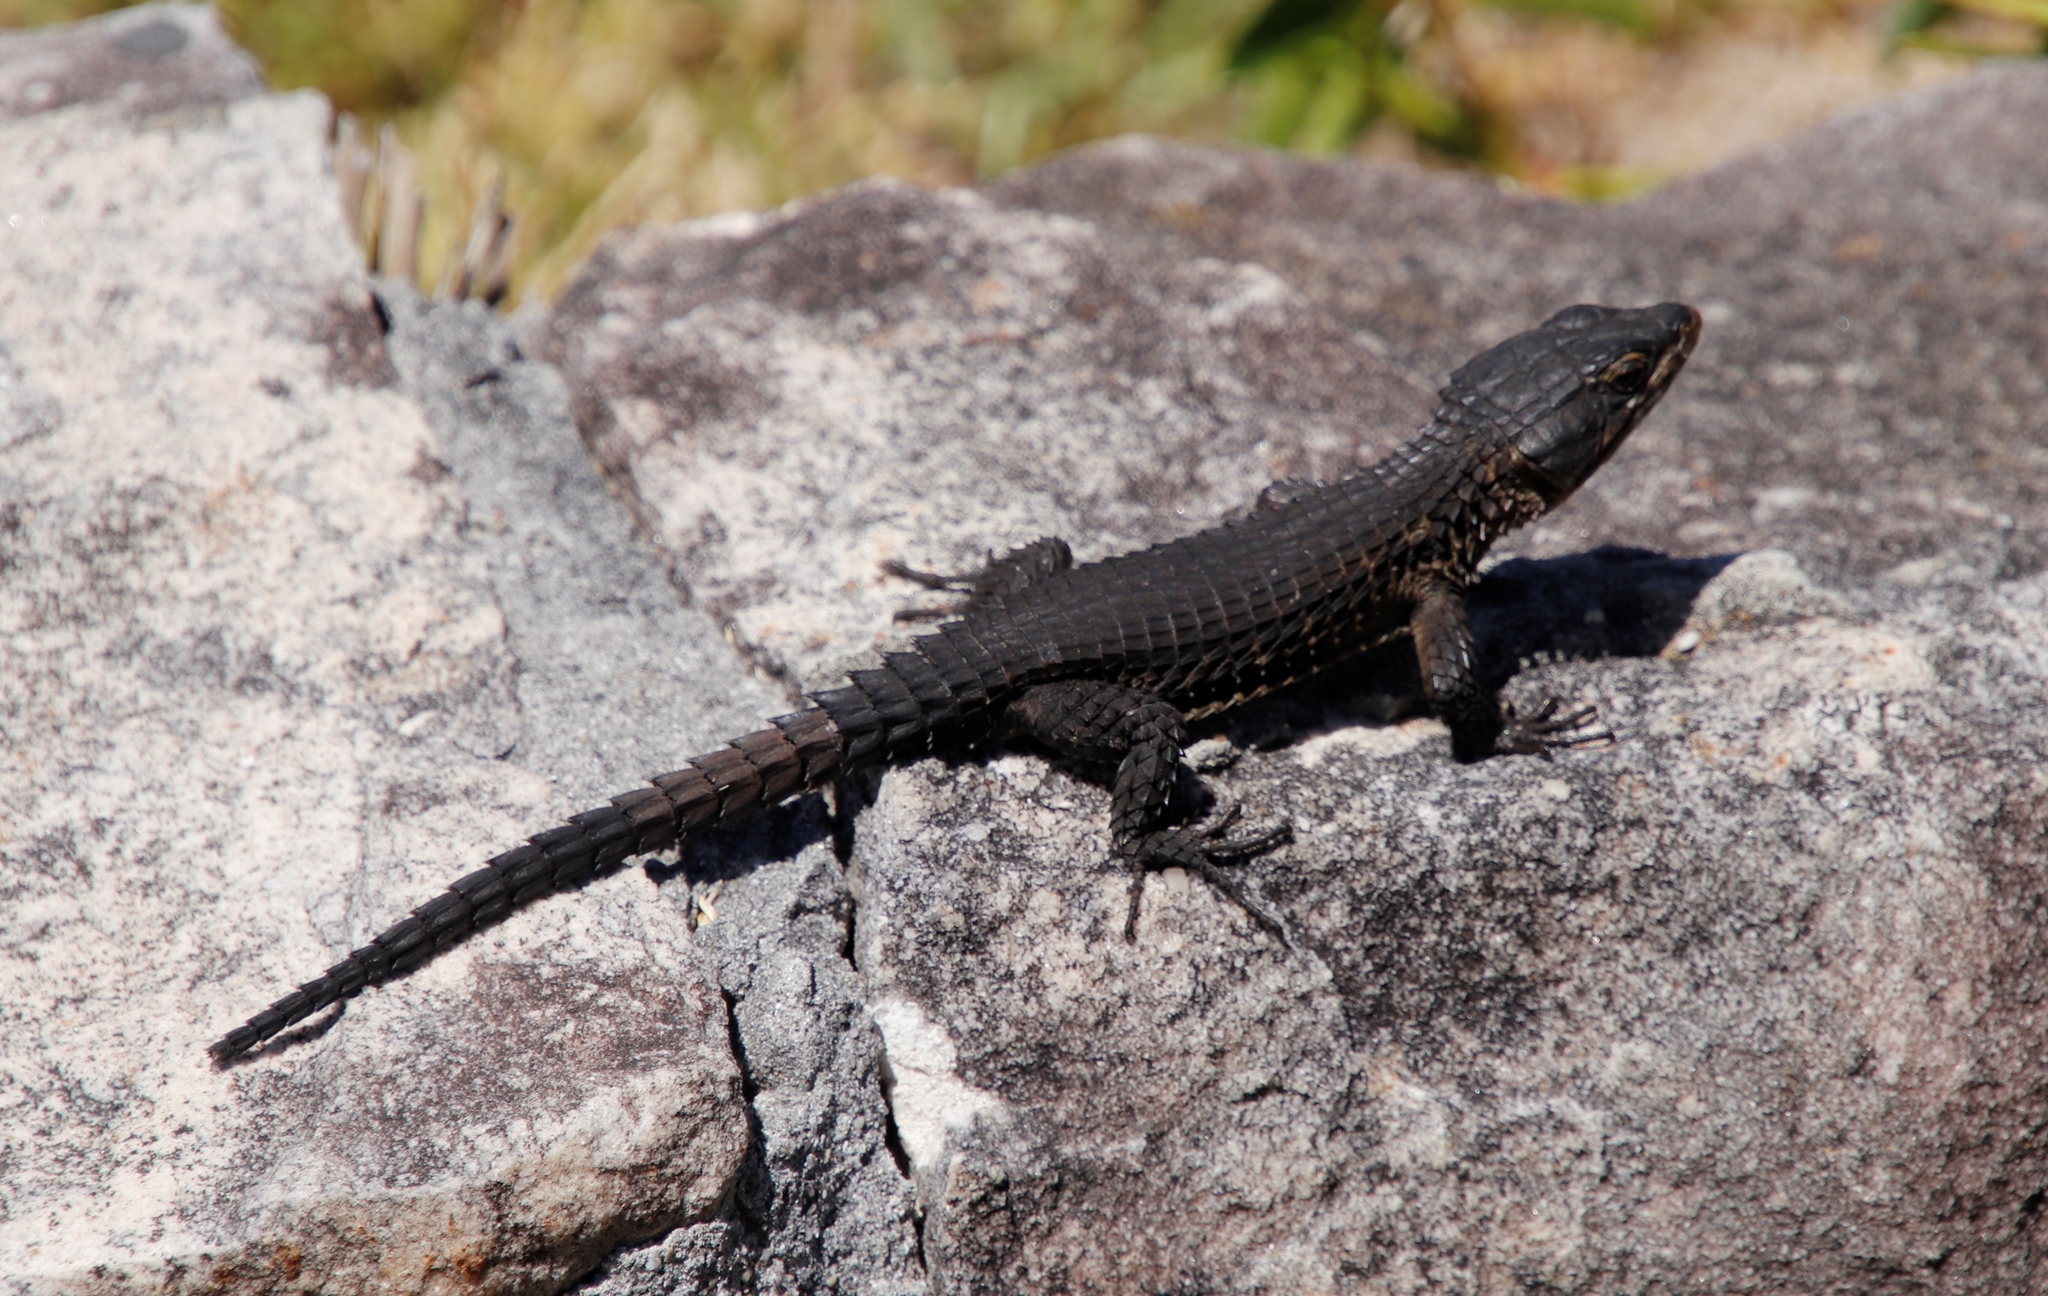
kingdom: Animalia
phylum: Chordata
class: Squamata
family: Cordylidae
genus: Cordylus
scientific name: Cordylus niger
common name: Black girdled lizard
